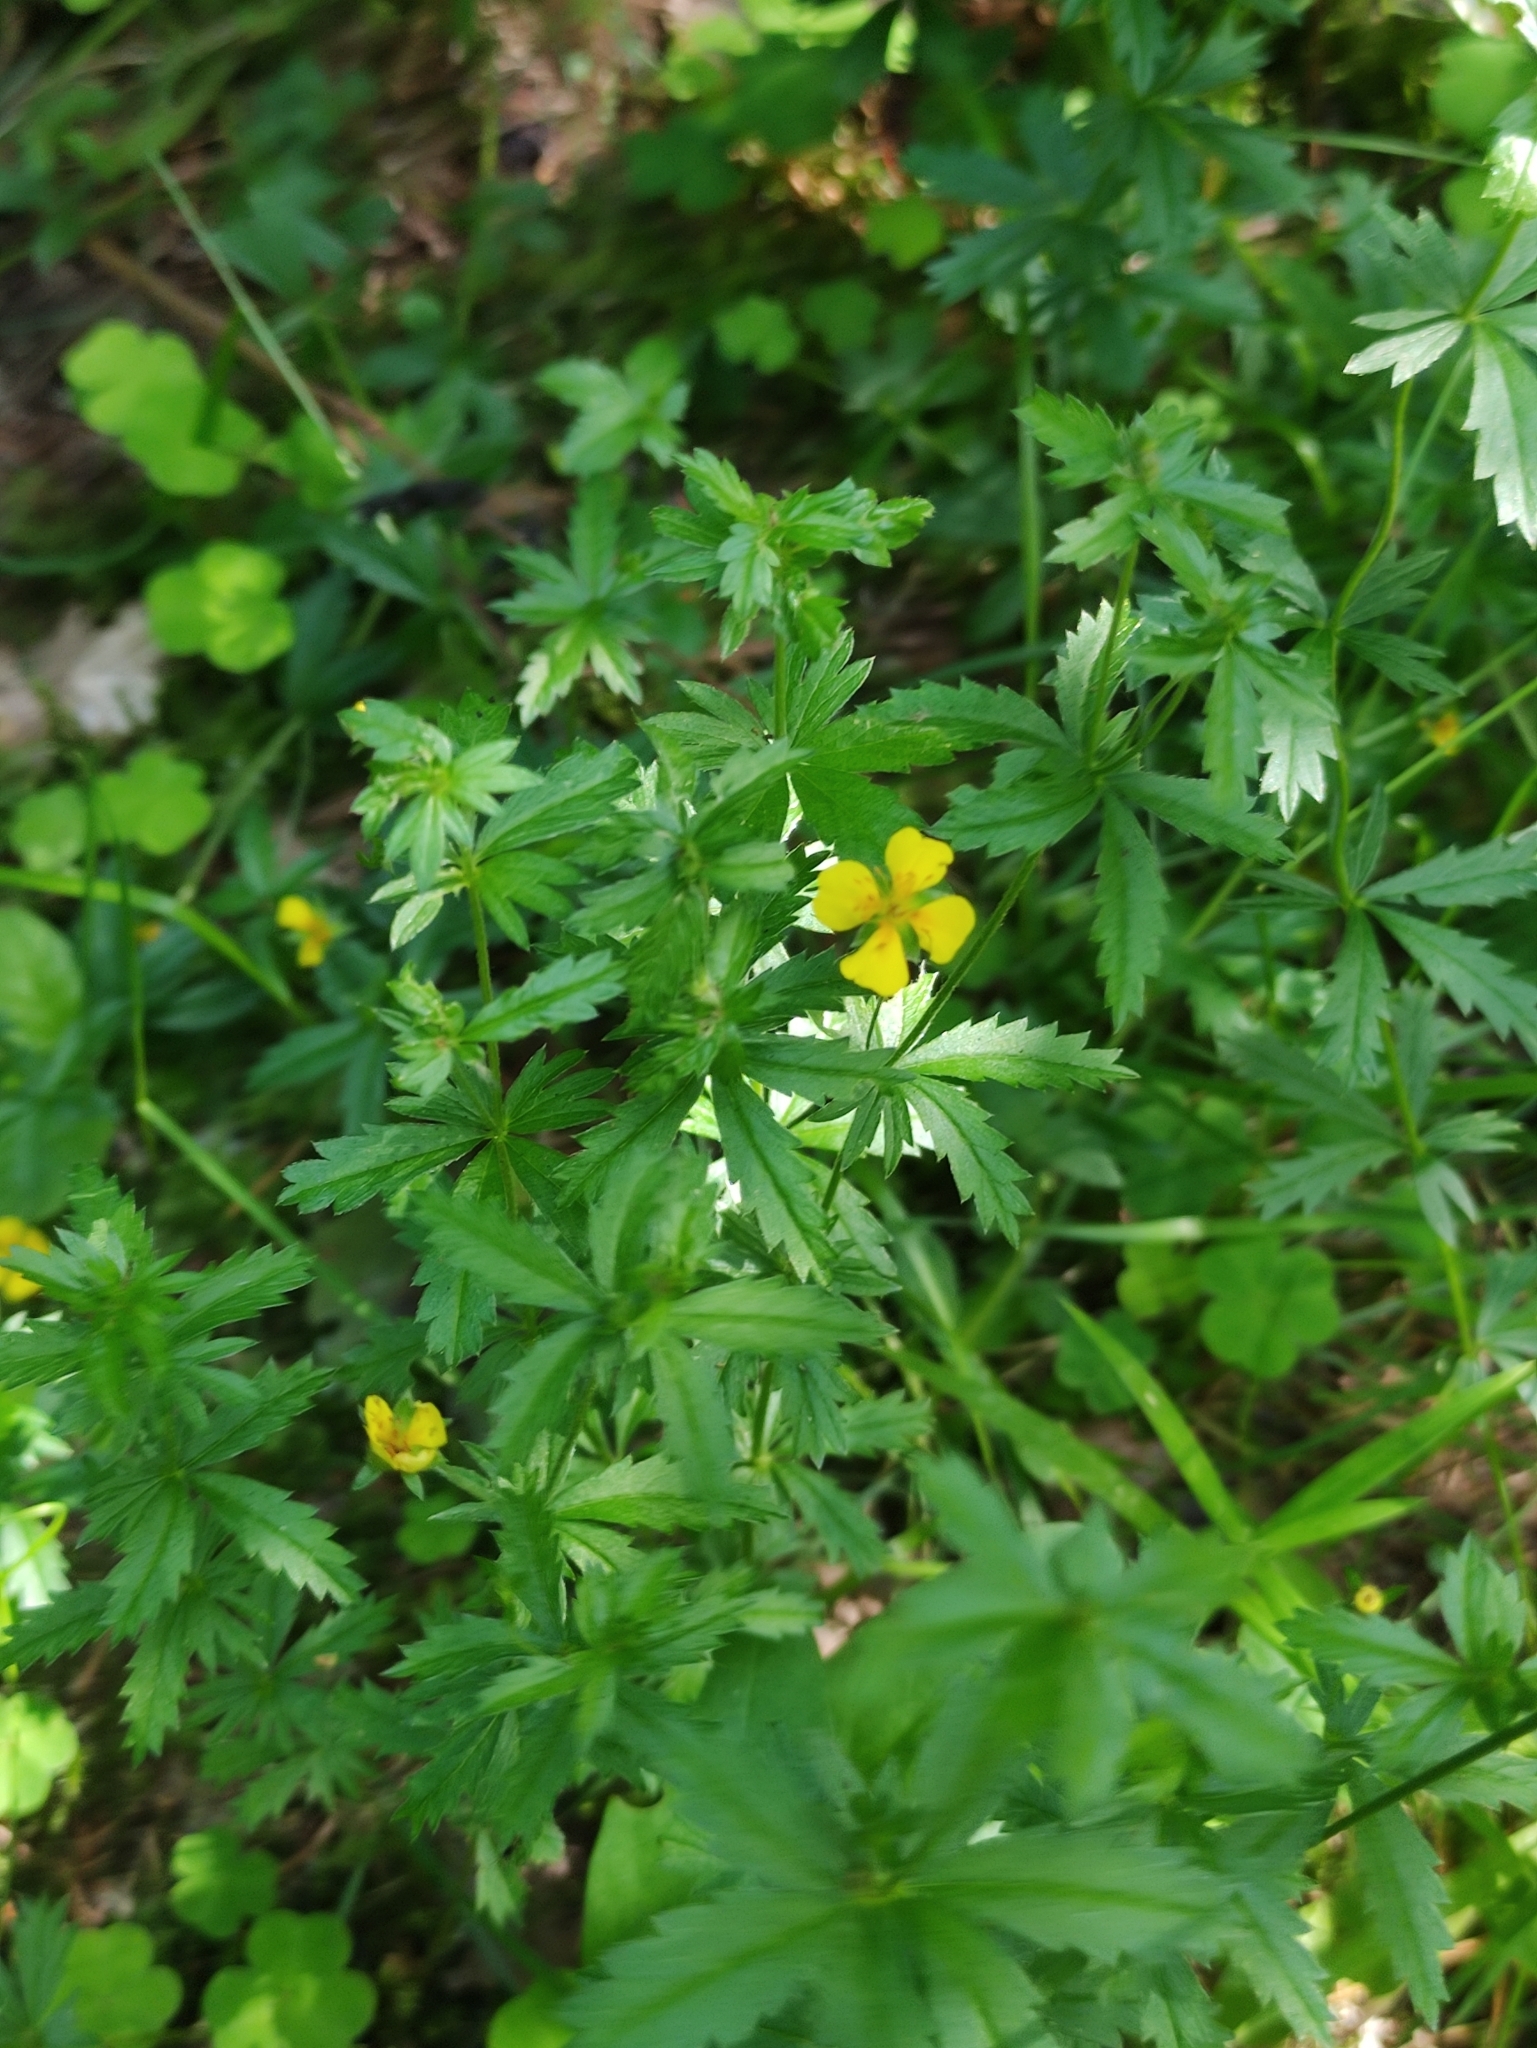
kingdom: Plantae
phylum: Tracheophyta
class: Magnoliopsida
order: Rosales
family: Rosaceae
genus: Potentilla
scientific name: Potentilla erecta
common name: Tormentil
